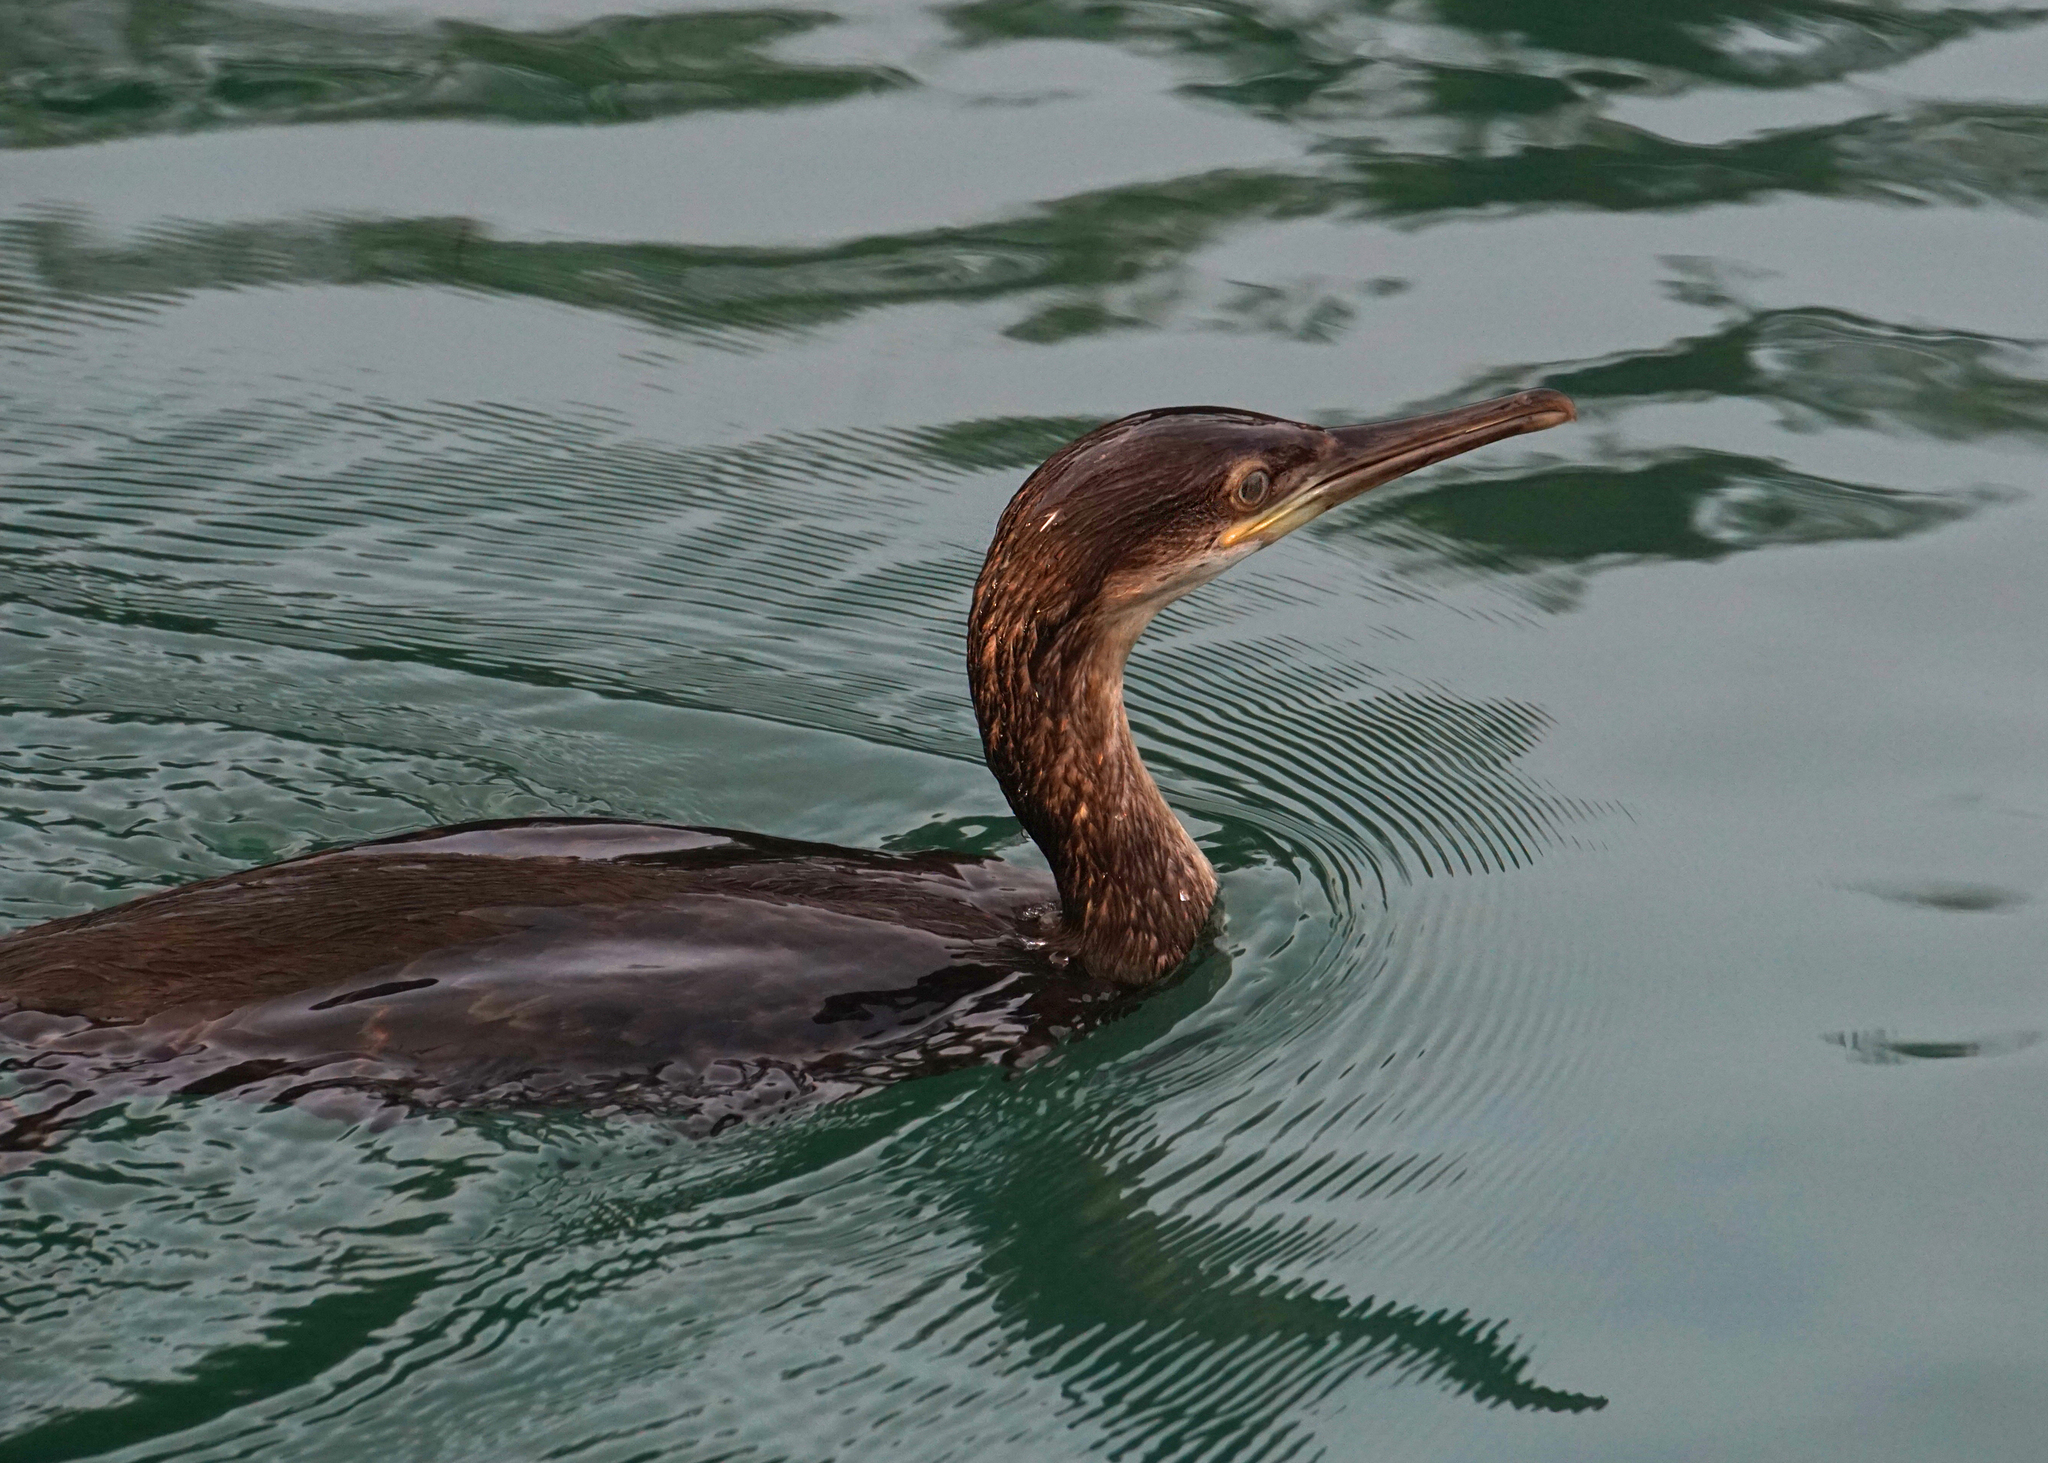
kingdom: Animalia
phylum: Chordata
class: Aves
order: Suliformes
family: Phalacrocoracidae
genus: Phalacrocorax
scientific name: Phalacrocorax aristotelis
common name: European shag
